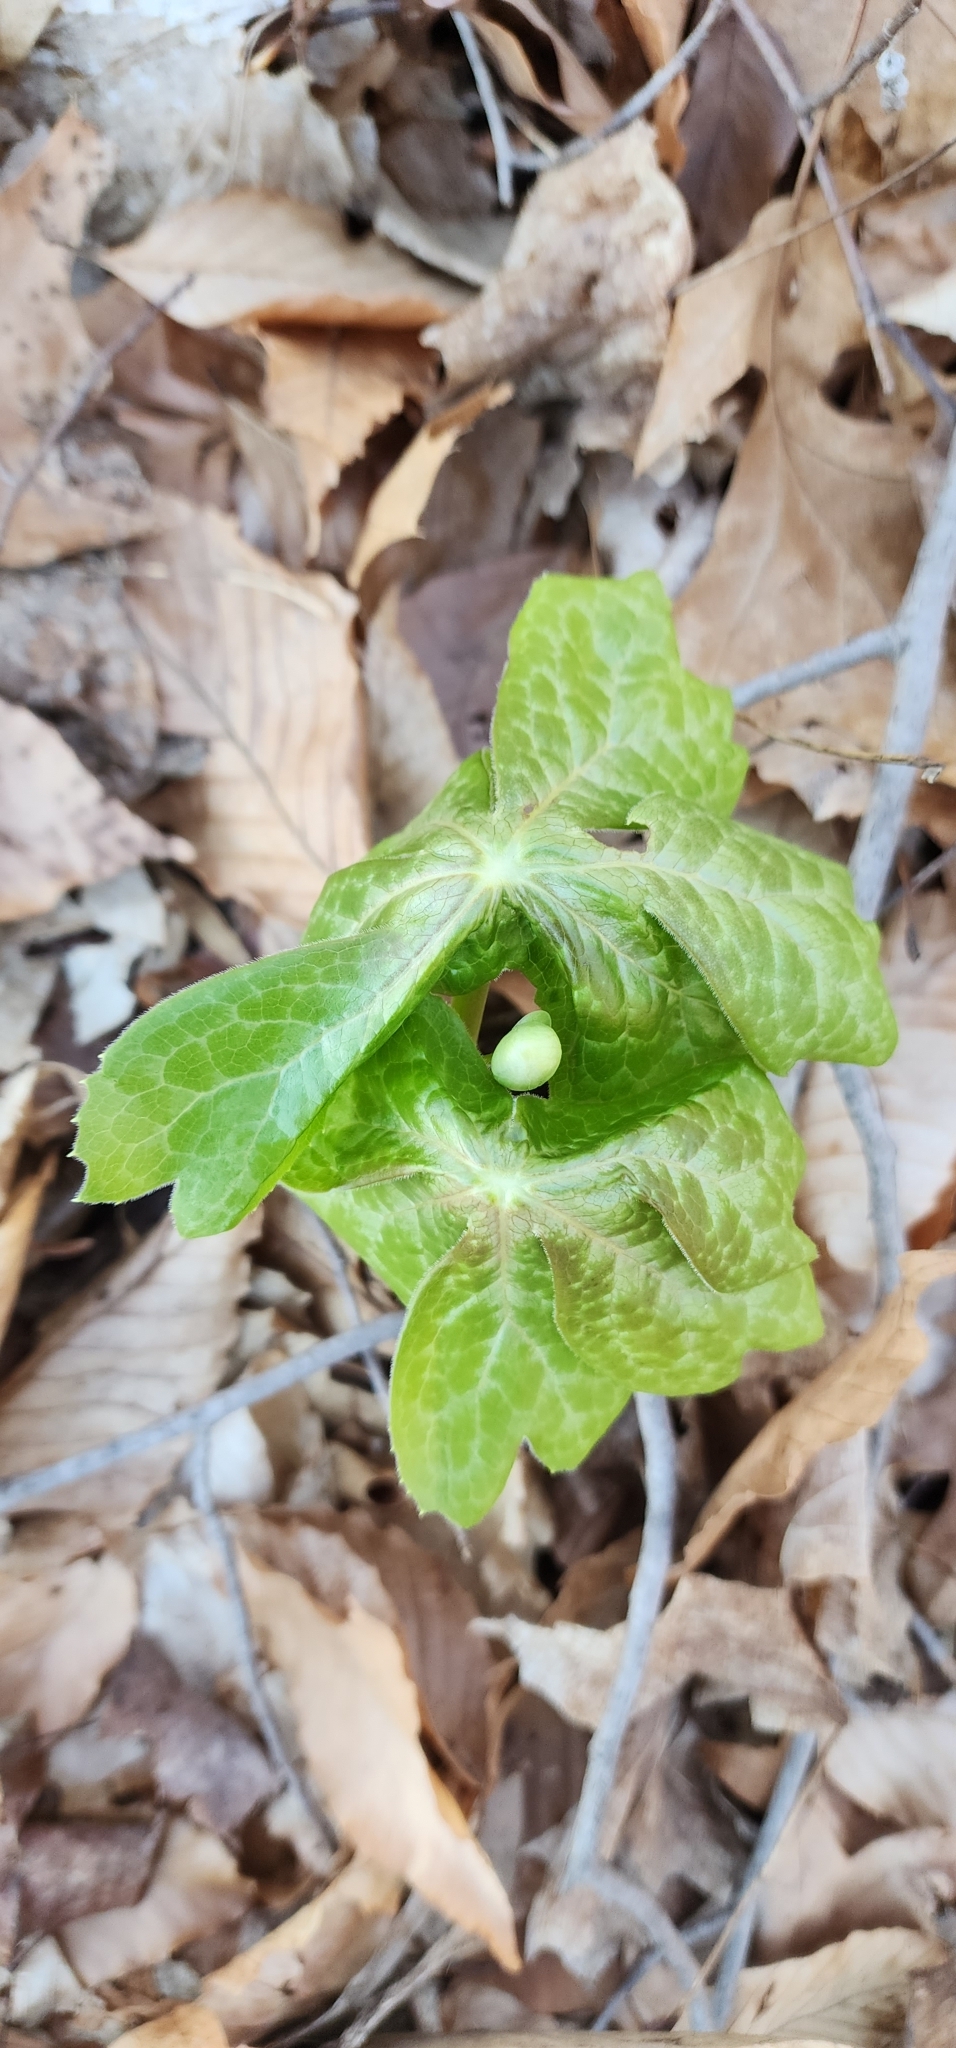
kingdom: Plantae
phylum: Tracheophyta
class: Magnoliopsida
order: Ranunculales
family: Berberidaceae
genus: Podophyllum
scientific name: Podophyllum peltatum
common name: Wild mandrake
